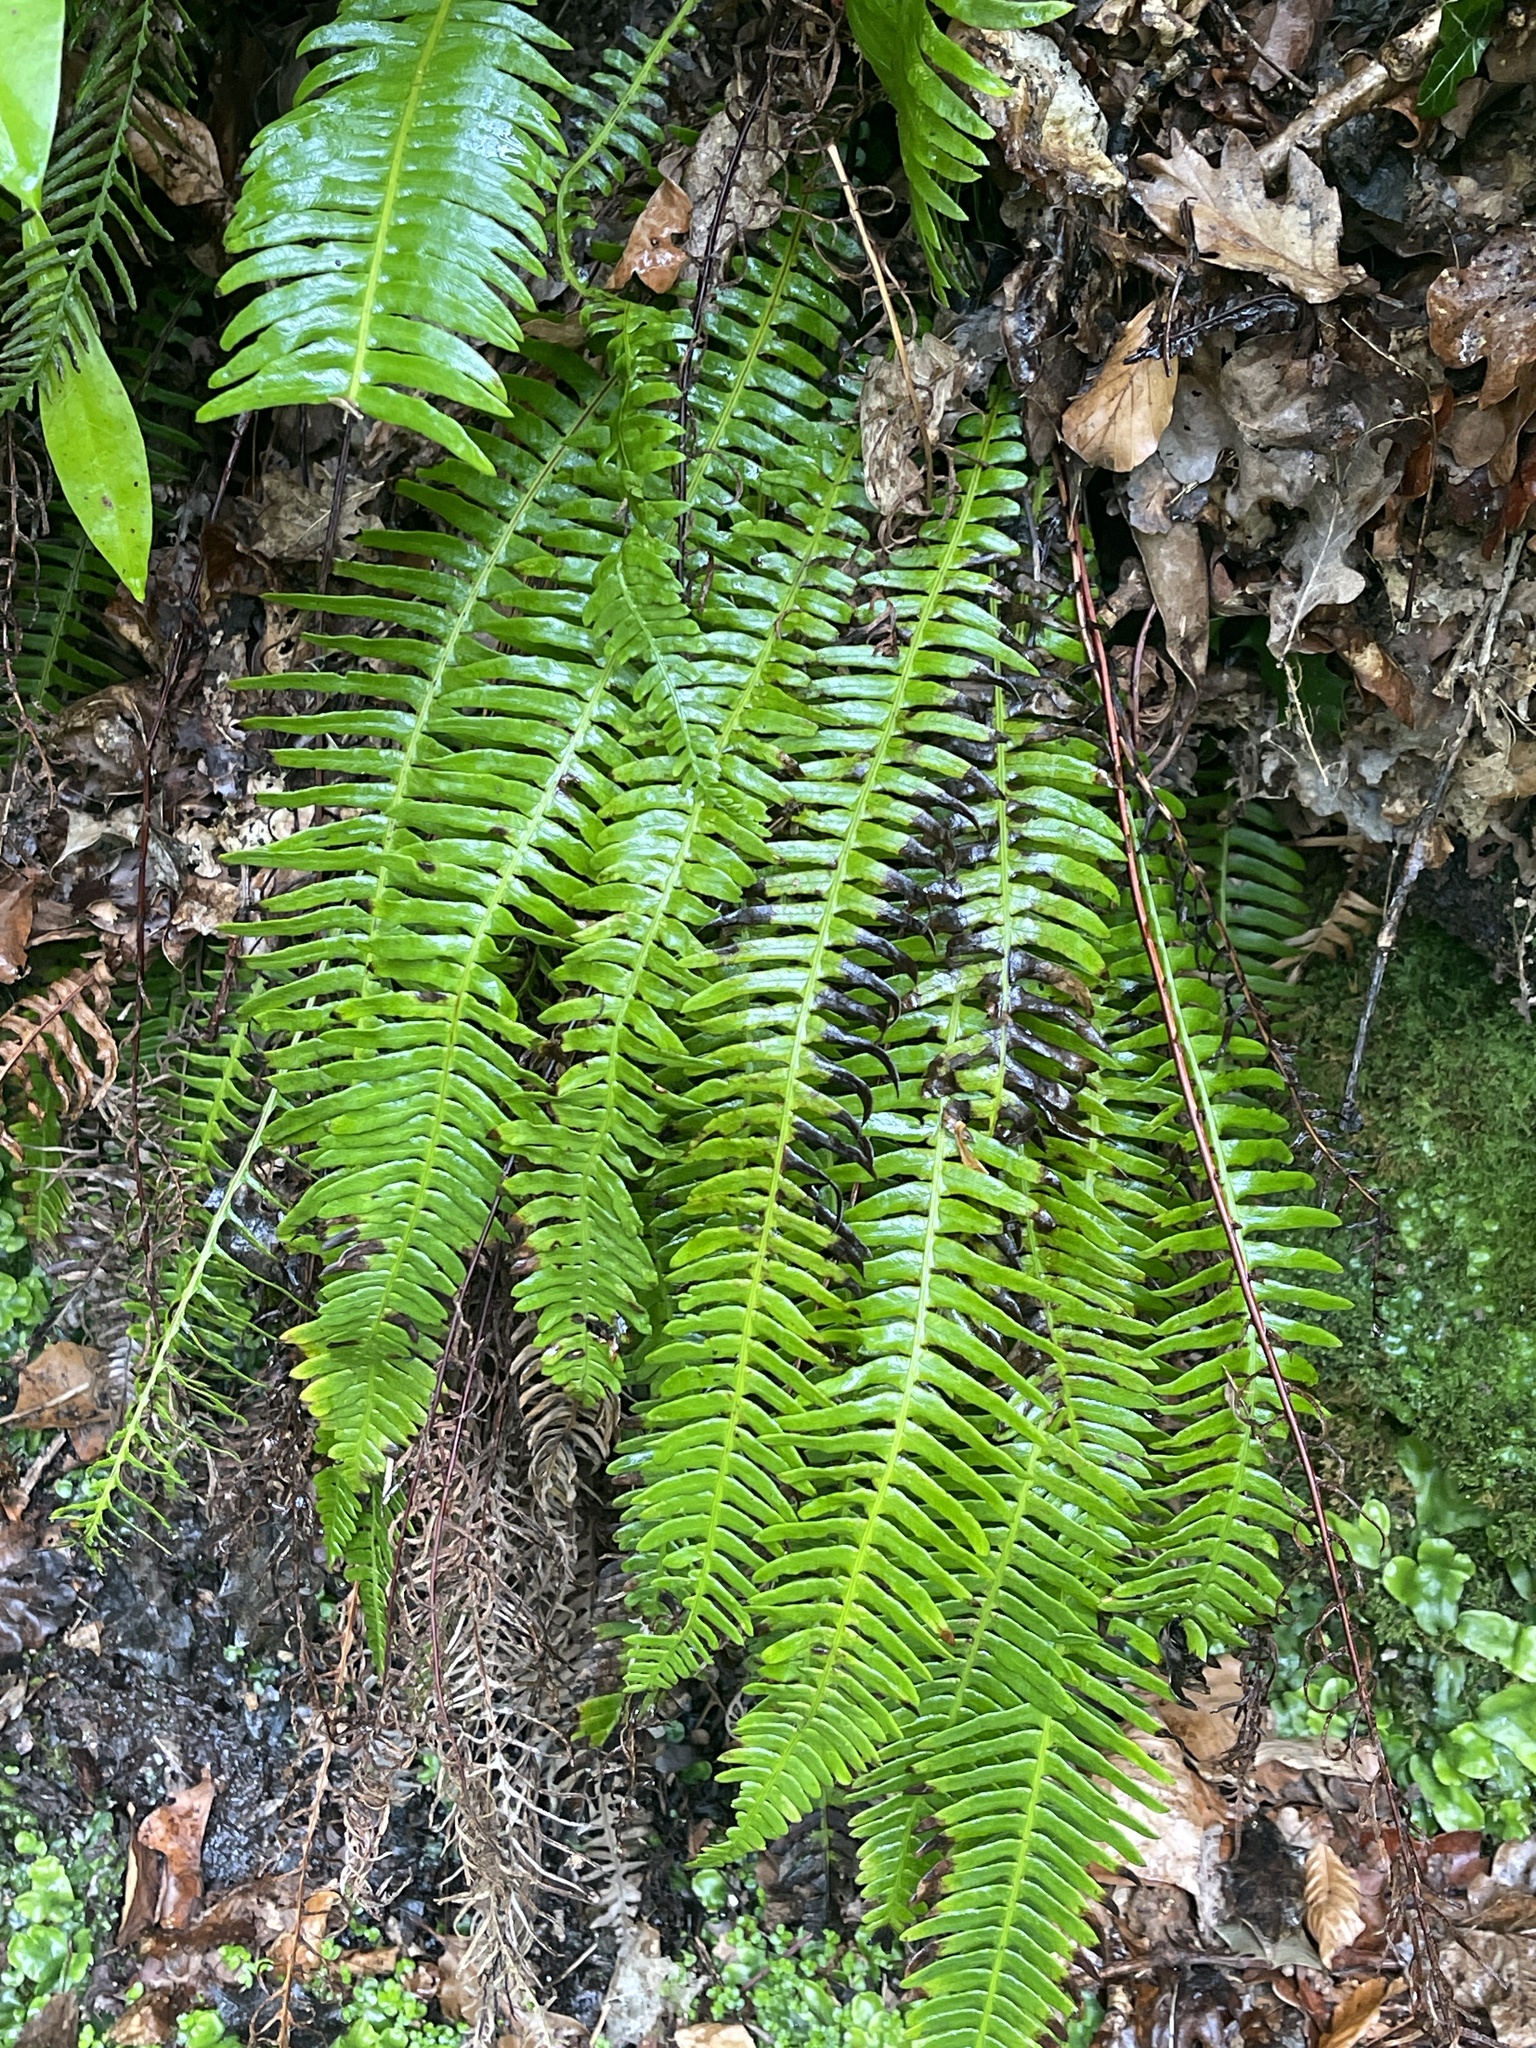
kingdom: Plantae
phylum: Tracheophyta
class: Polypodiopsida
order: Polypodiales
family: Blechnaceae
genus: Struthiopteris
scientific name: Struthiopteris spicant
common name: Deer fern
